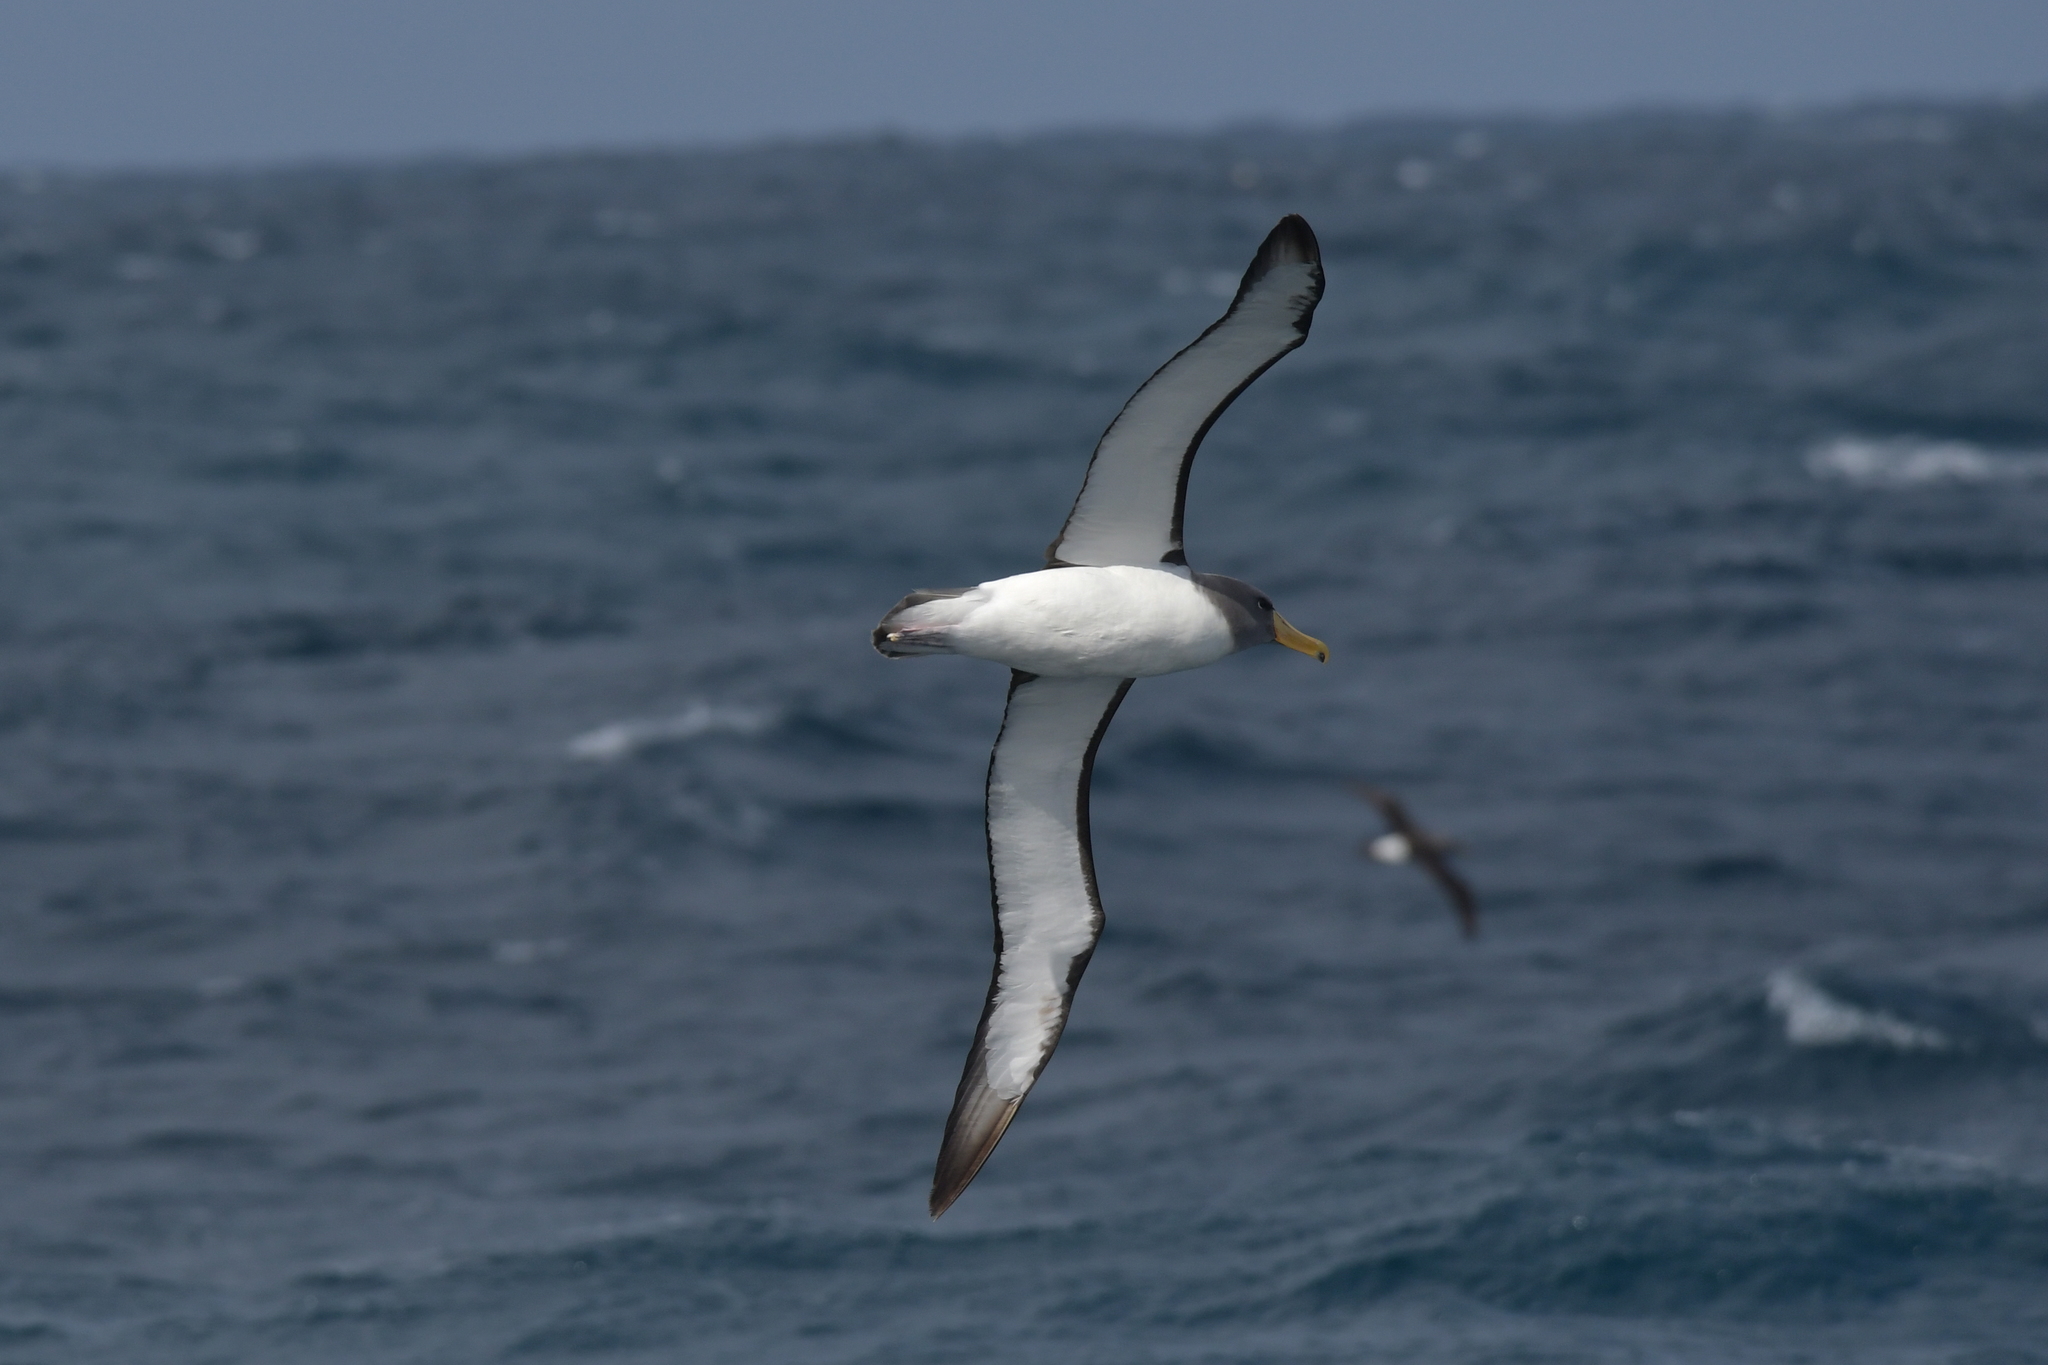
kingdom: Animalia
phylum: Chordata
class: Aves
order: Procellariiformes
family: Diomedeidae
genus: Thalassarche
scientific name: Thalassarche eremita
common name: Chatham albatross
